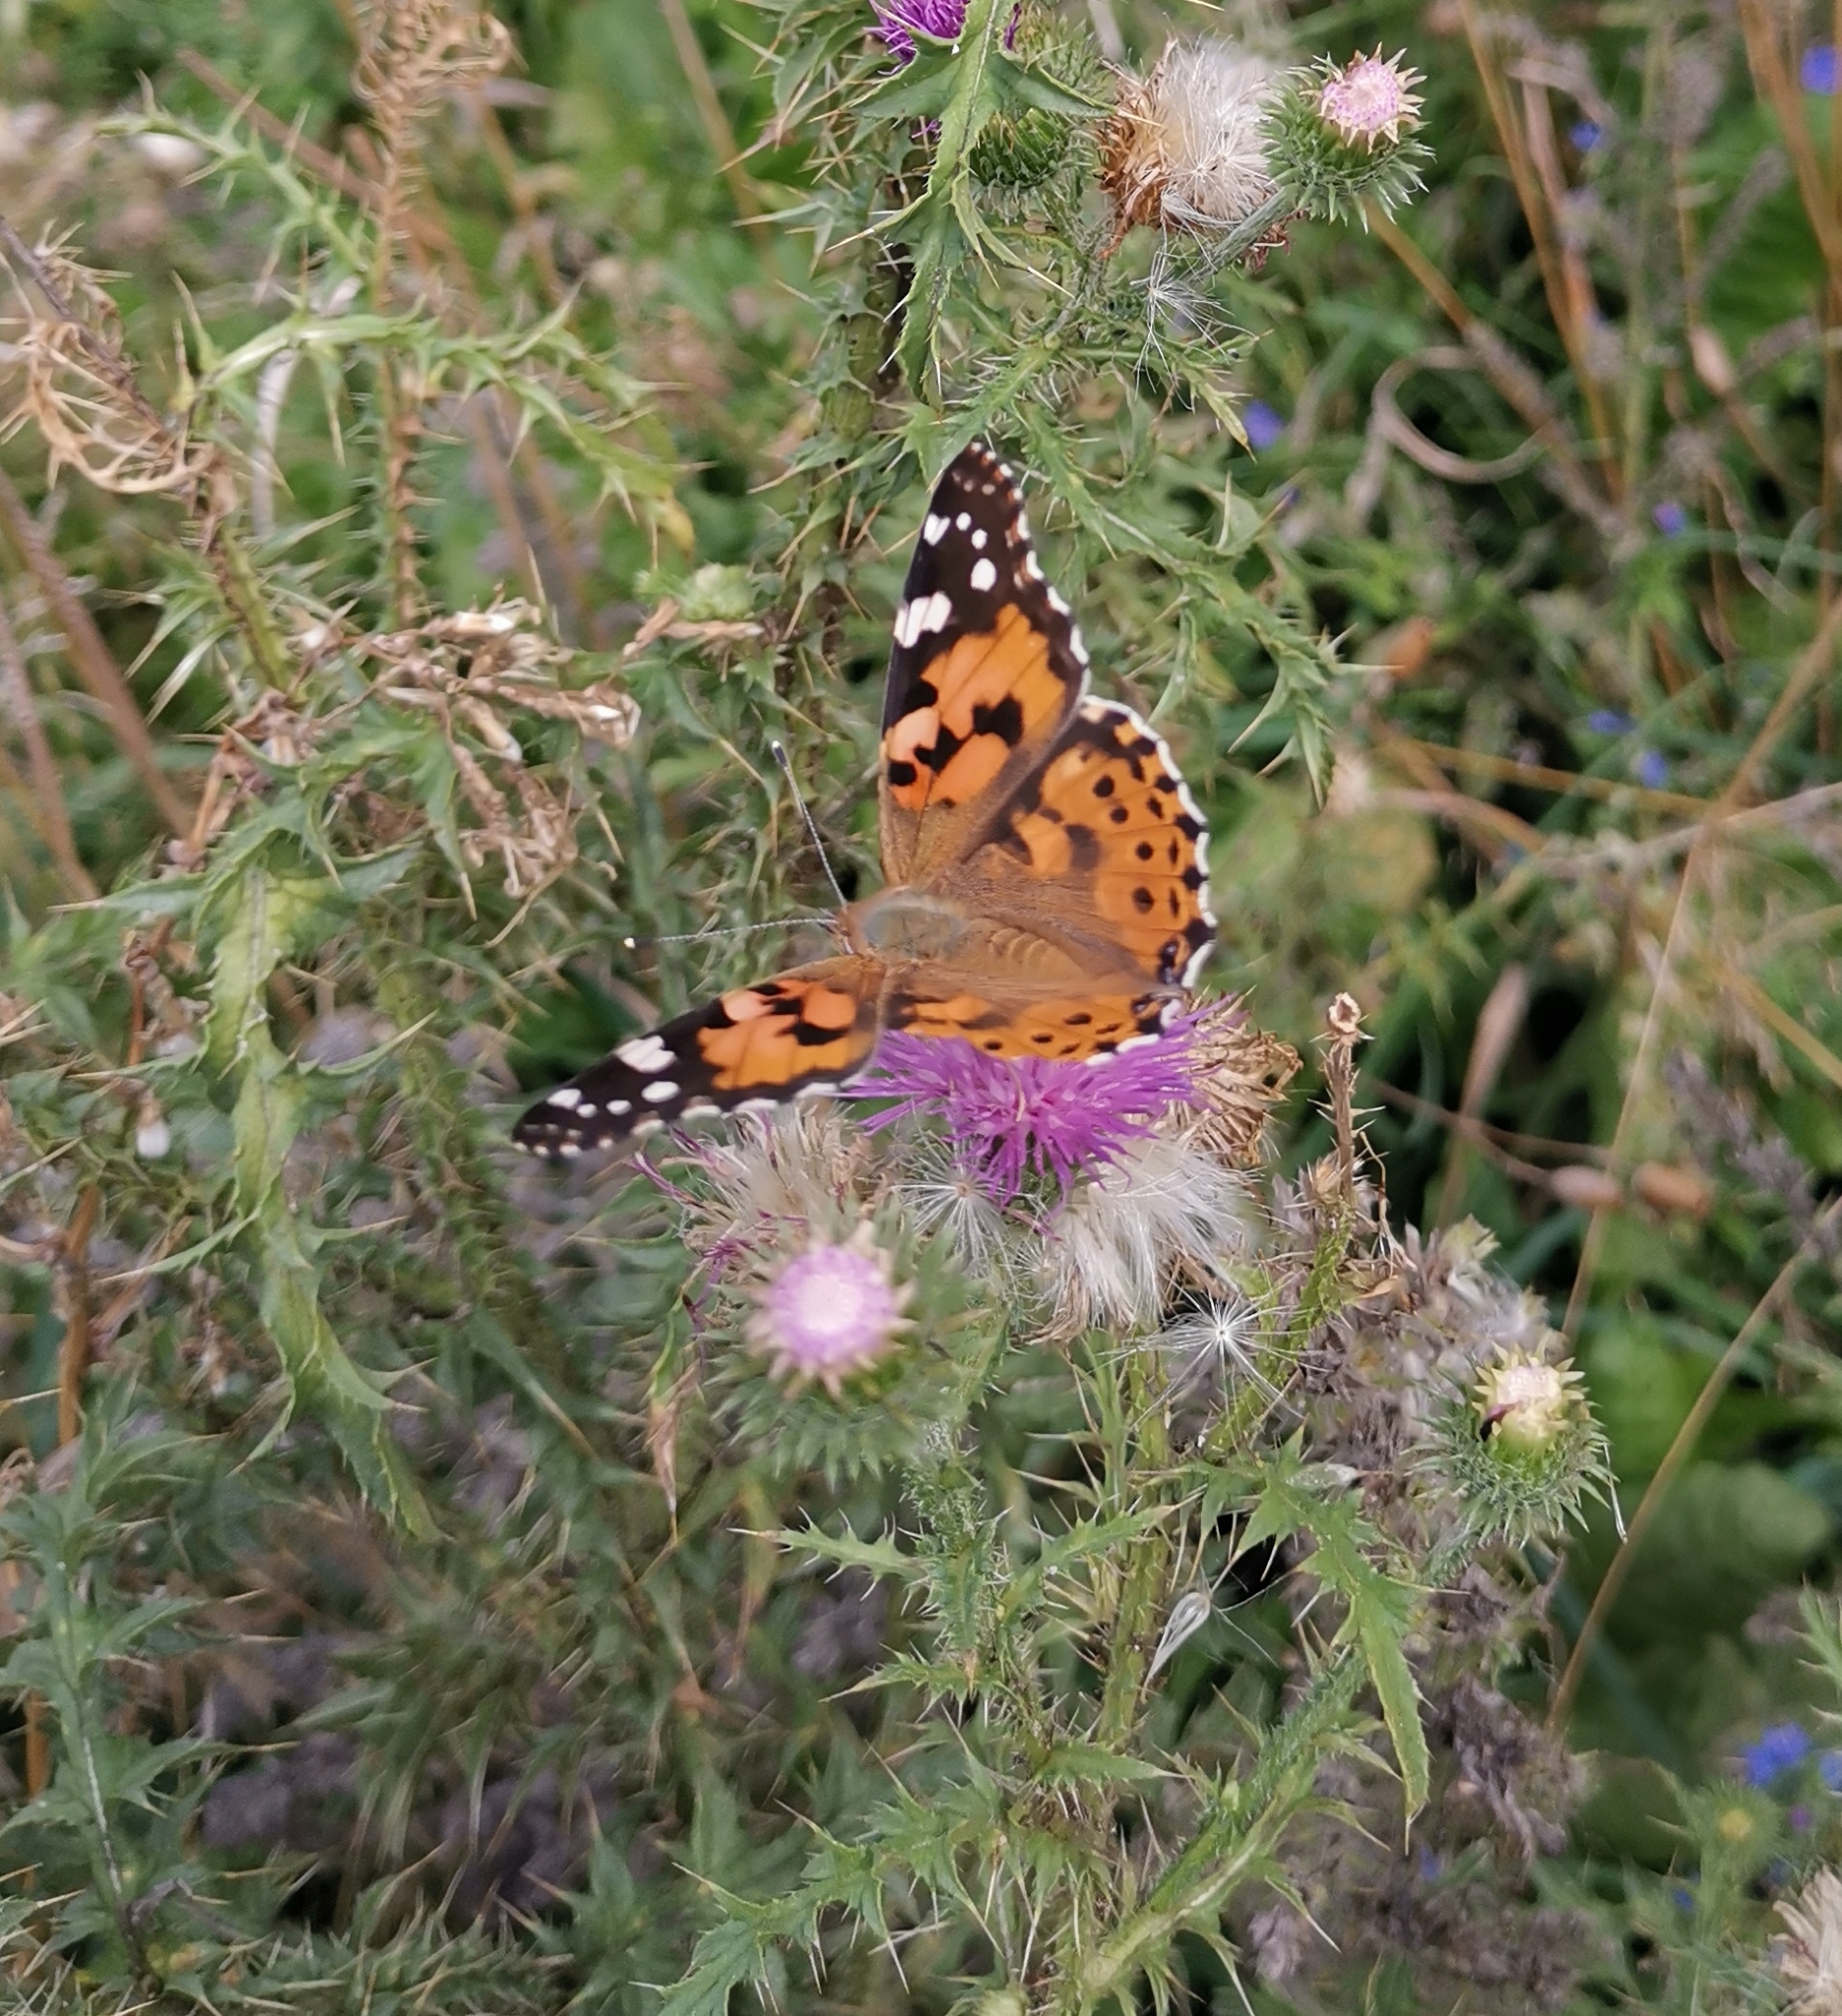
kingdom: Animalia
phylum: Arthropoda
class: Insecta
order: Lepidoptera
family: Nymphalidae
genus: Vanessa
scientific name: Vanessa cardui
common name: Painted lady
